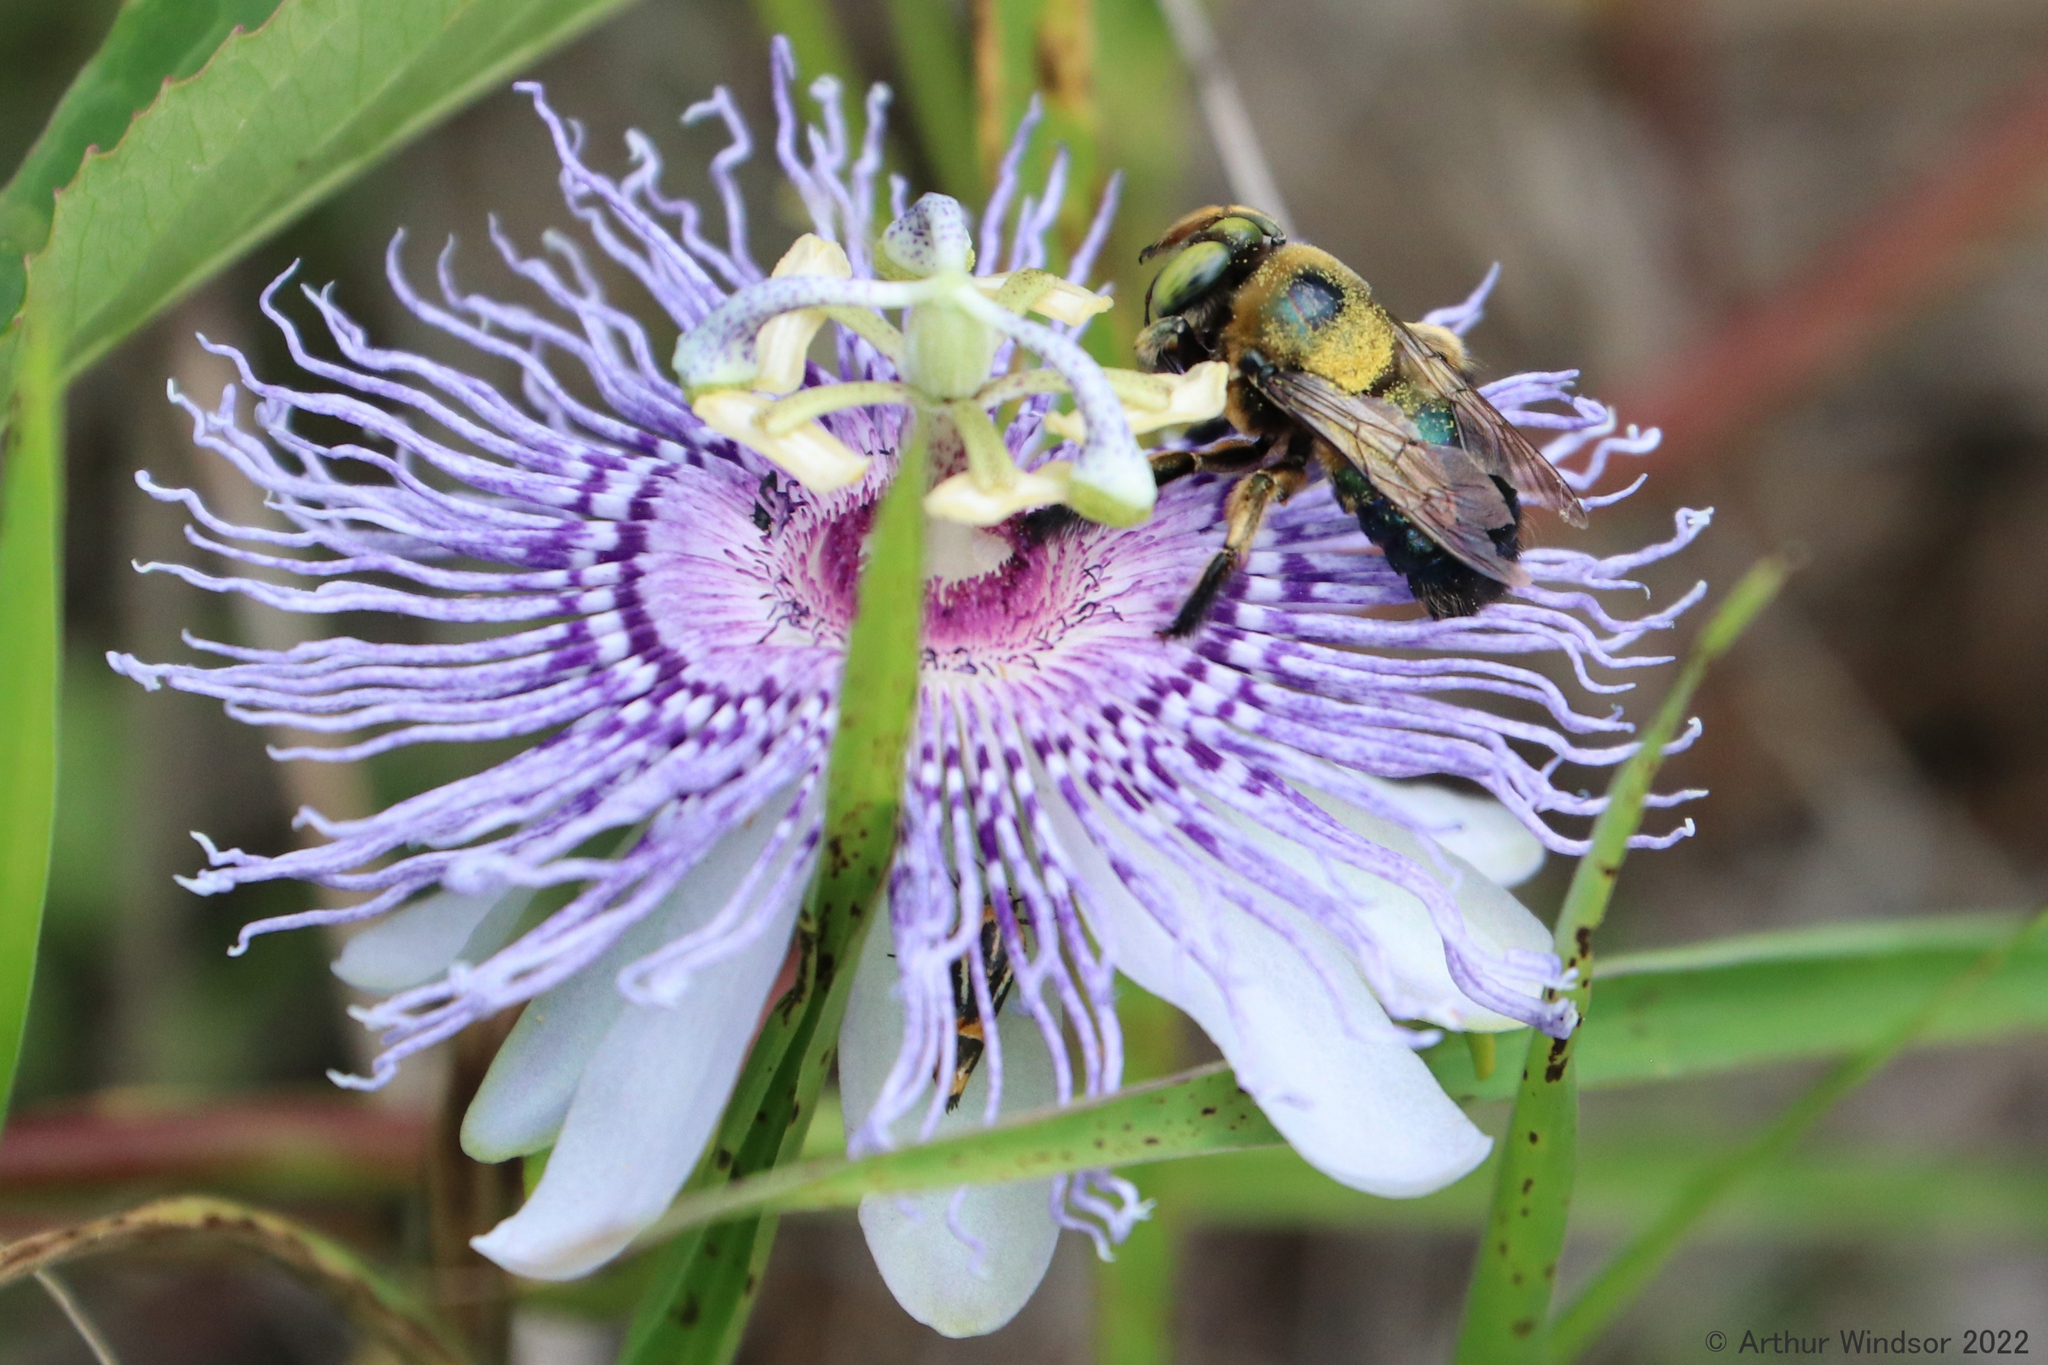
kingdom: Animalia
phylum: Arthropoda
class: Insecta
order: Hymenoptera
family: Apidae
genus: Xylocopa
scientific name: Xylocopa micans
